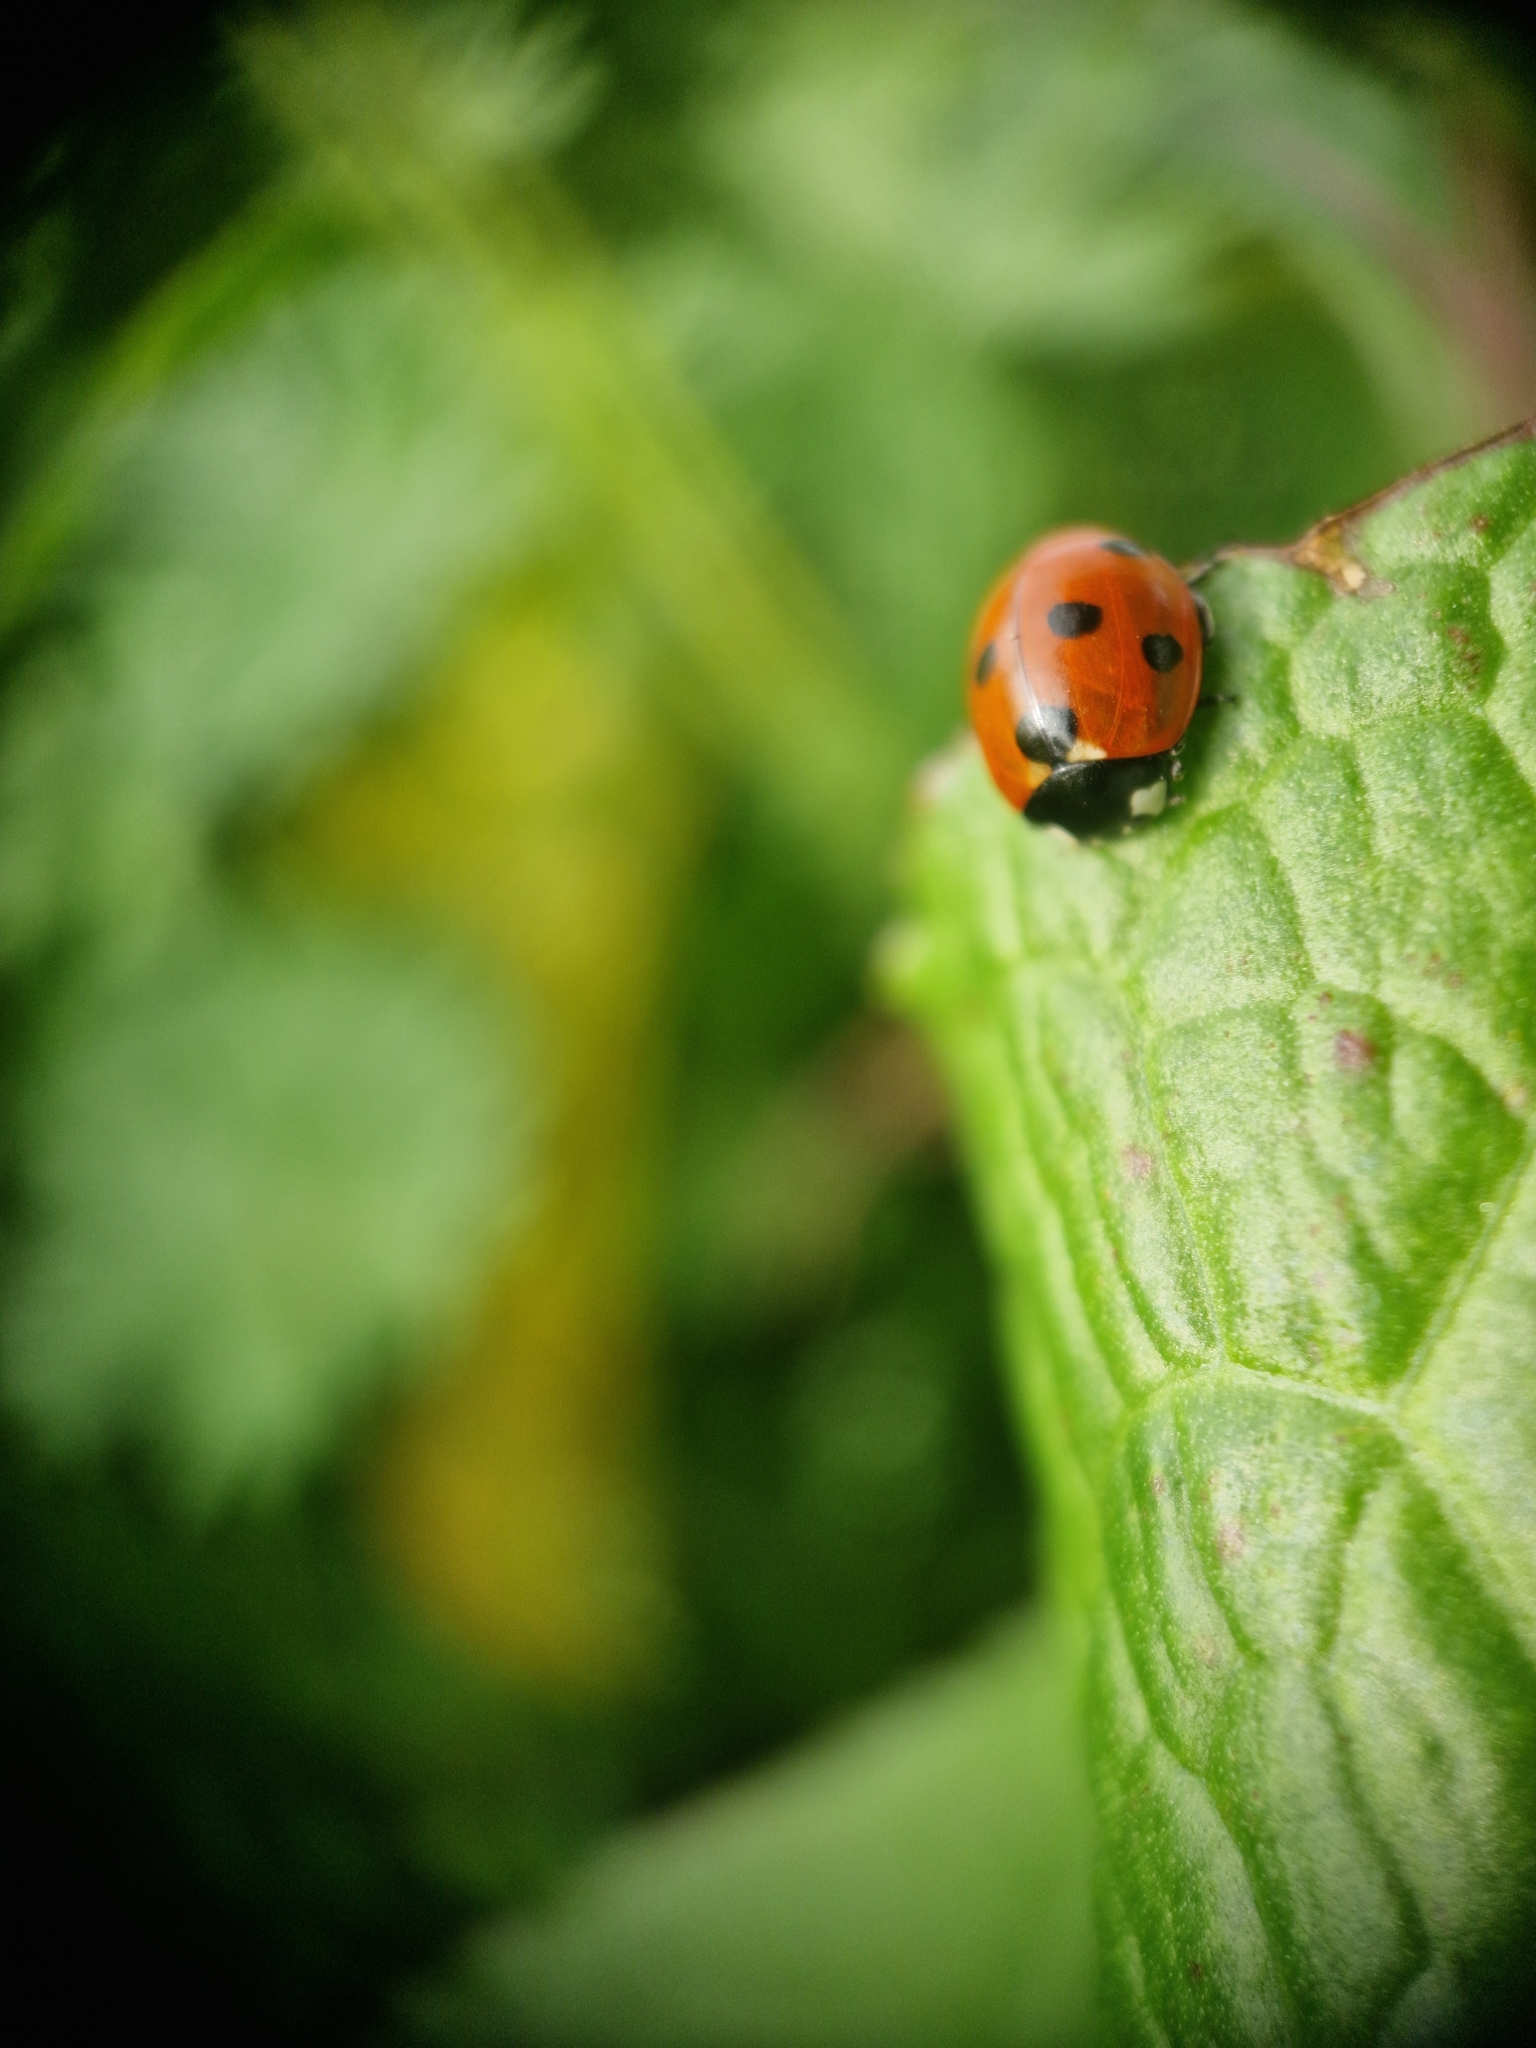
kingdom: Animalia
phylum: Arthropoda
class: Insecta
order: Coleoptera
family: Coccinellidae
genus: Coccinella
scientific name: Coccinella septempunctata
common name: Sevenspotted lady beetle
